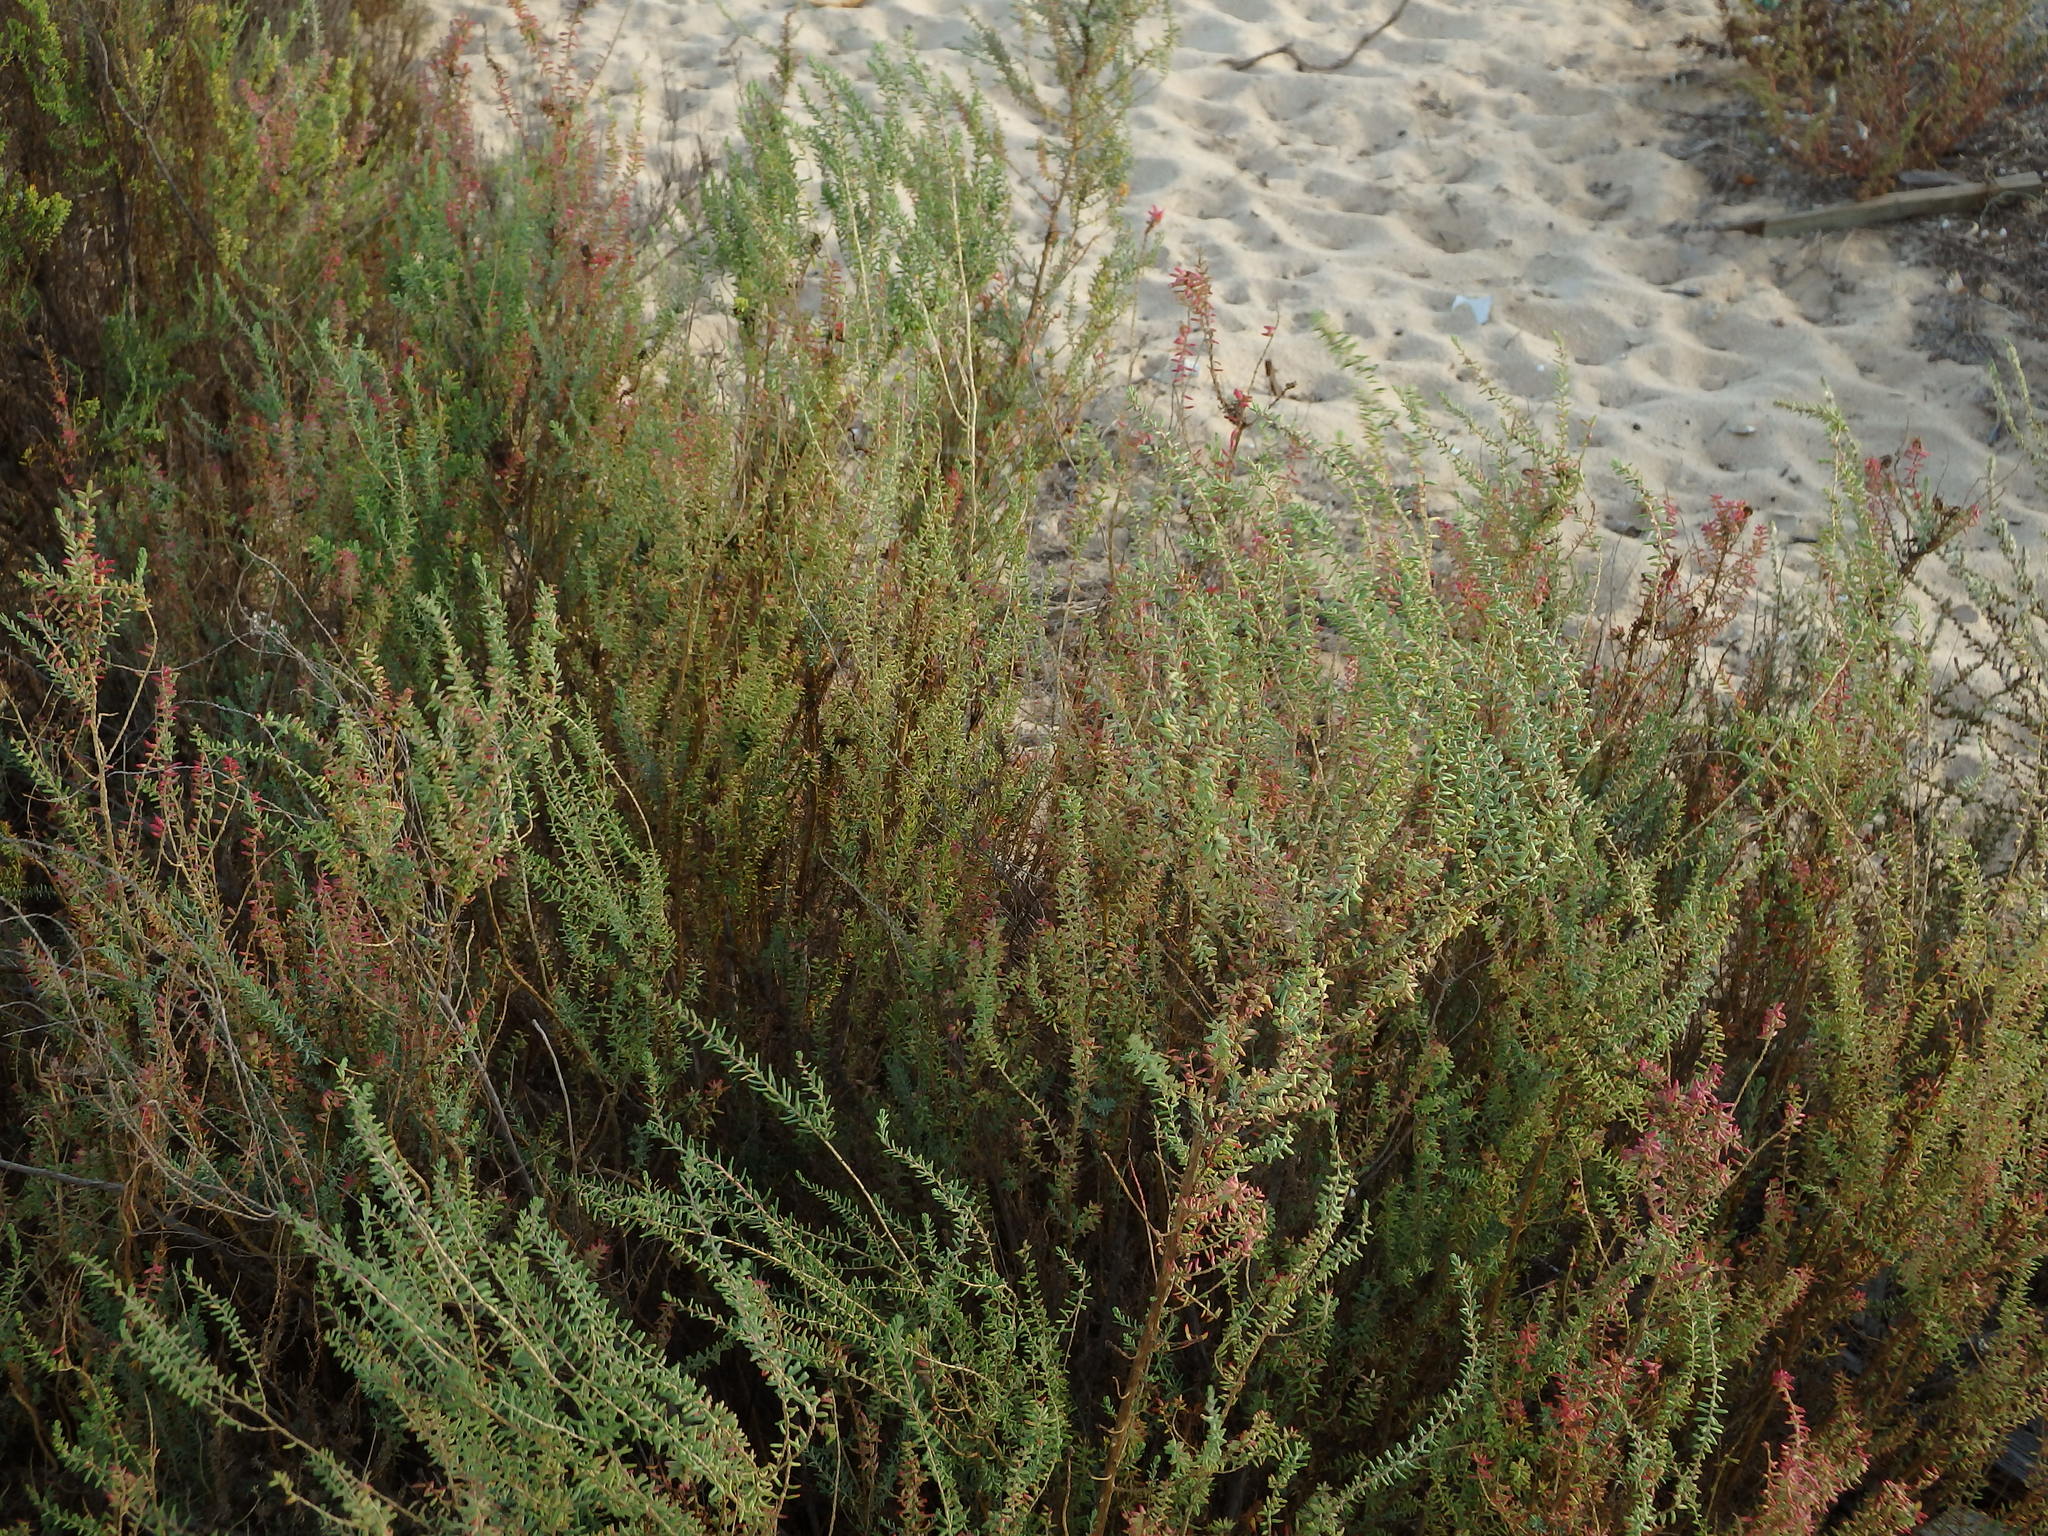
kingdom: Plantae
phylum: Tracheophyta
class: Magnoliopsida
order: Caryophyllales
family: Amaranthaceae
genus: Suaeda
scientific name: Suaeda vera
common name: Shrubby sea-blite
